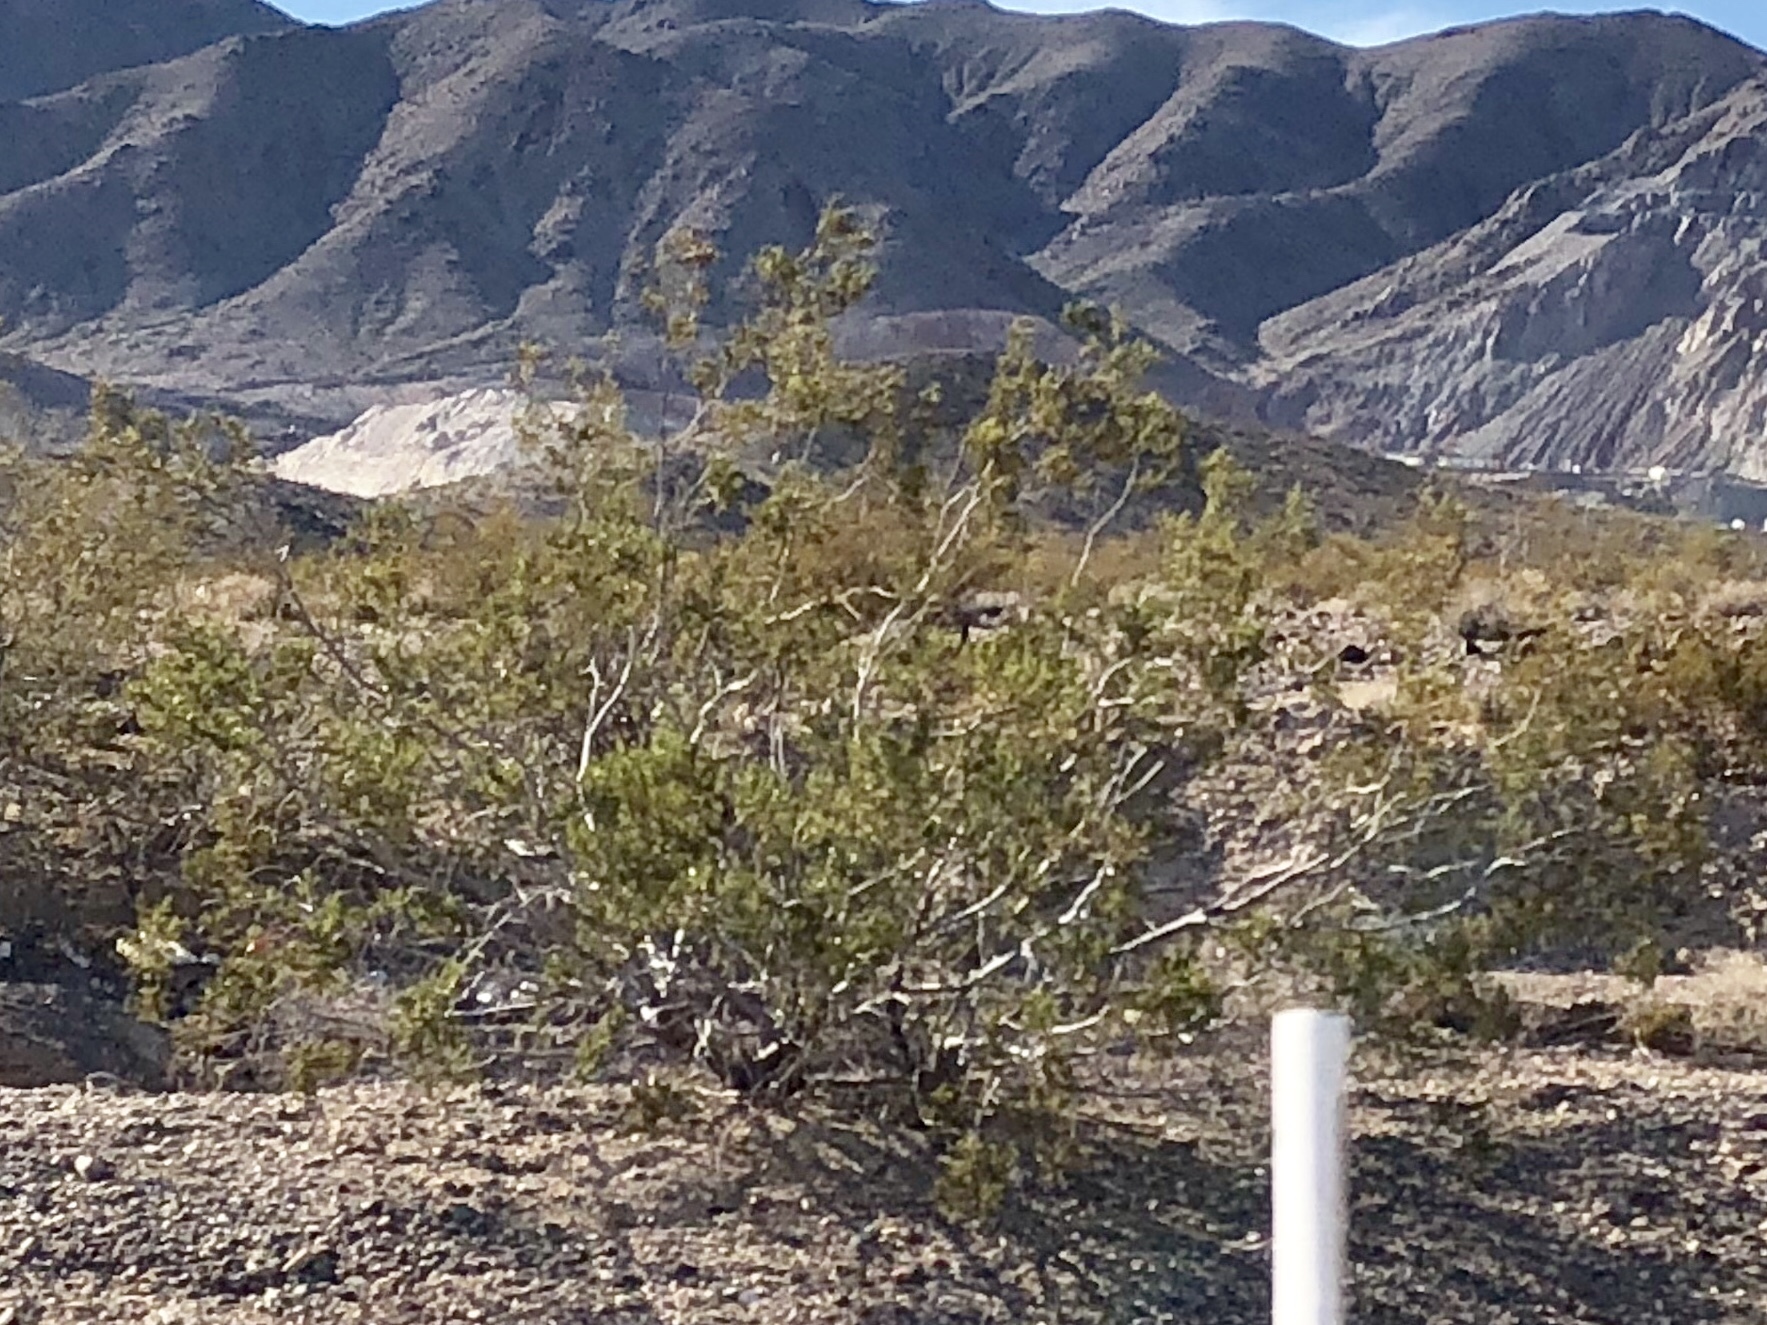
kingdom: Plantae
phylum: Tracheophyta
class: Magnoliopsida
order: Zygophyllales
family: Zygophyllaceae
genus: Larrea
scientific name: Larrea tridentata
